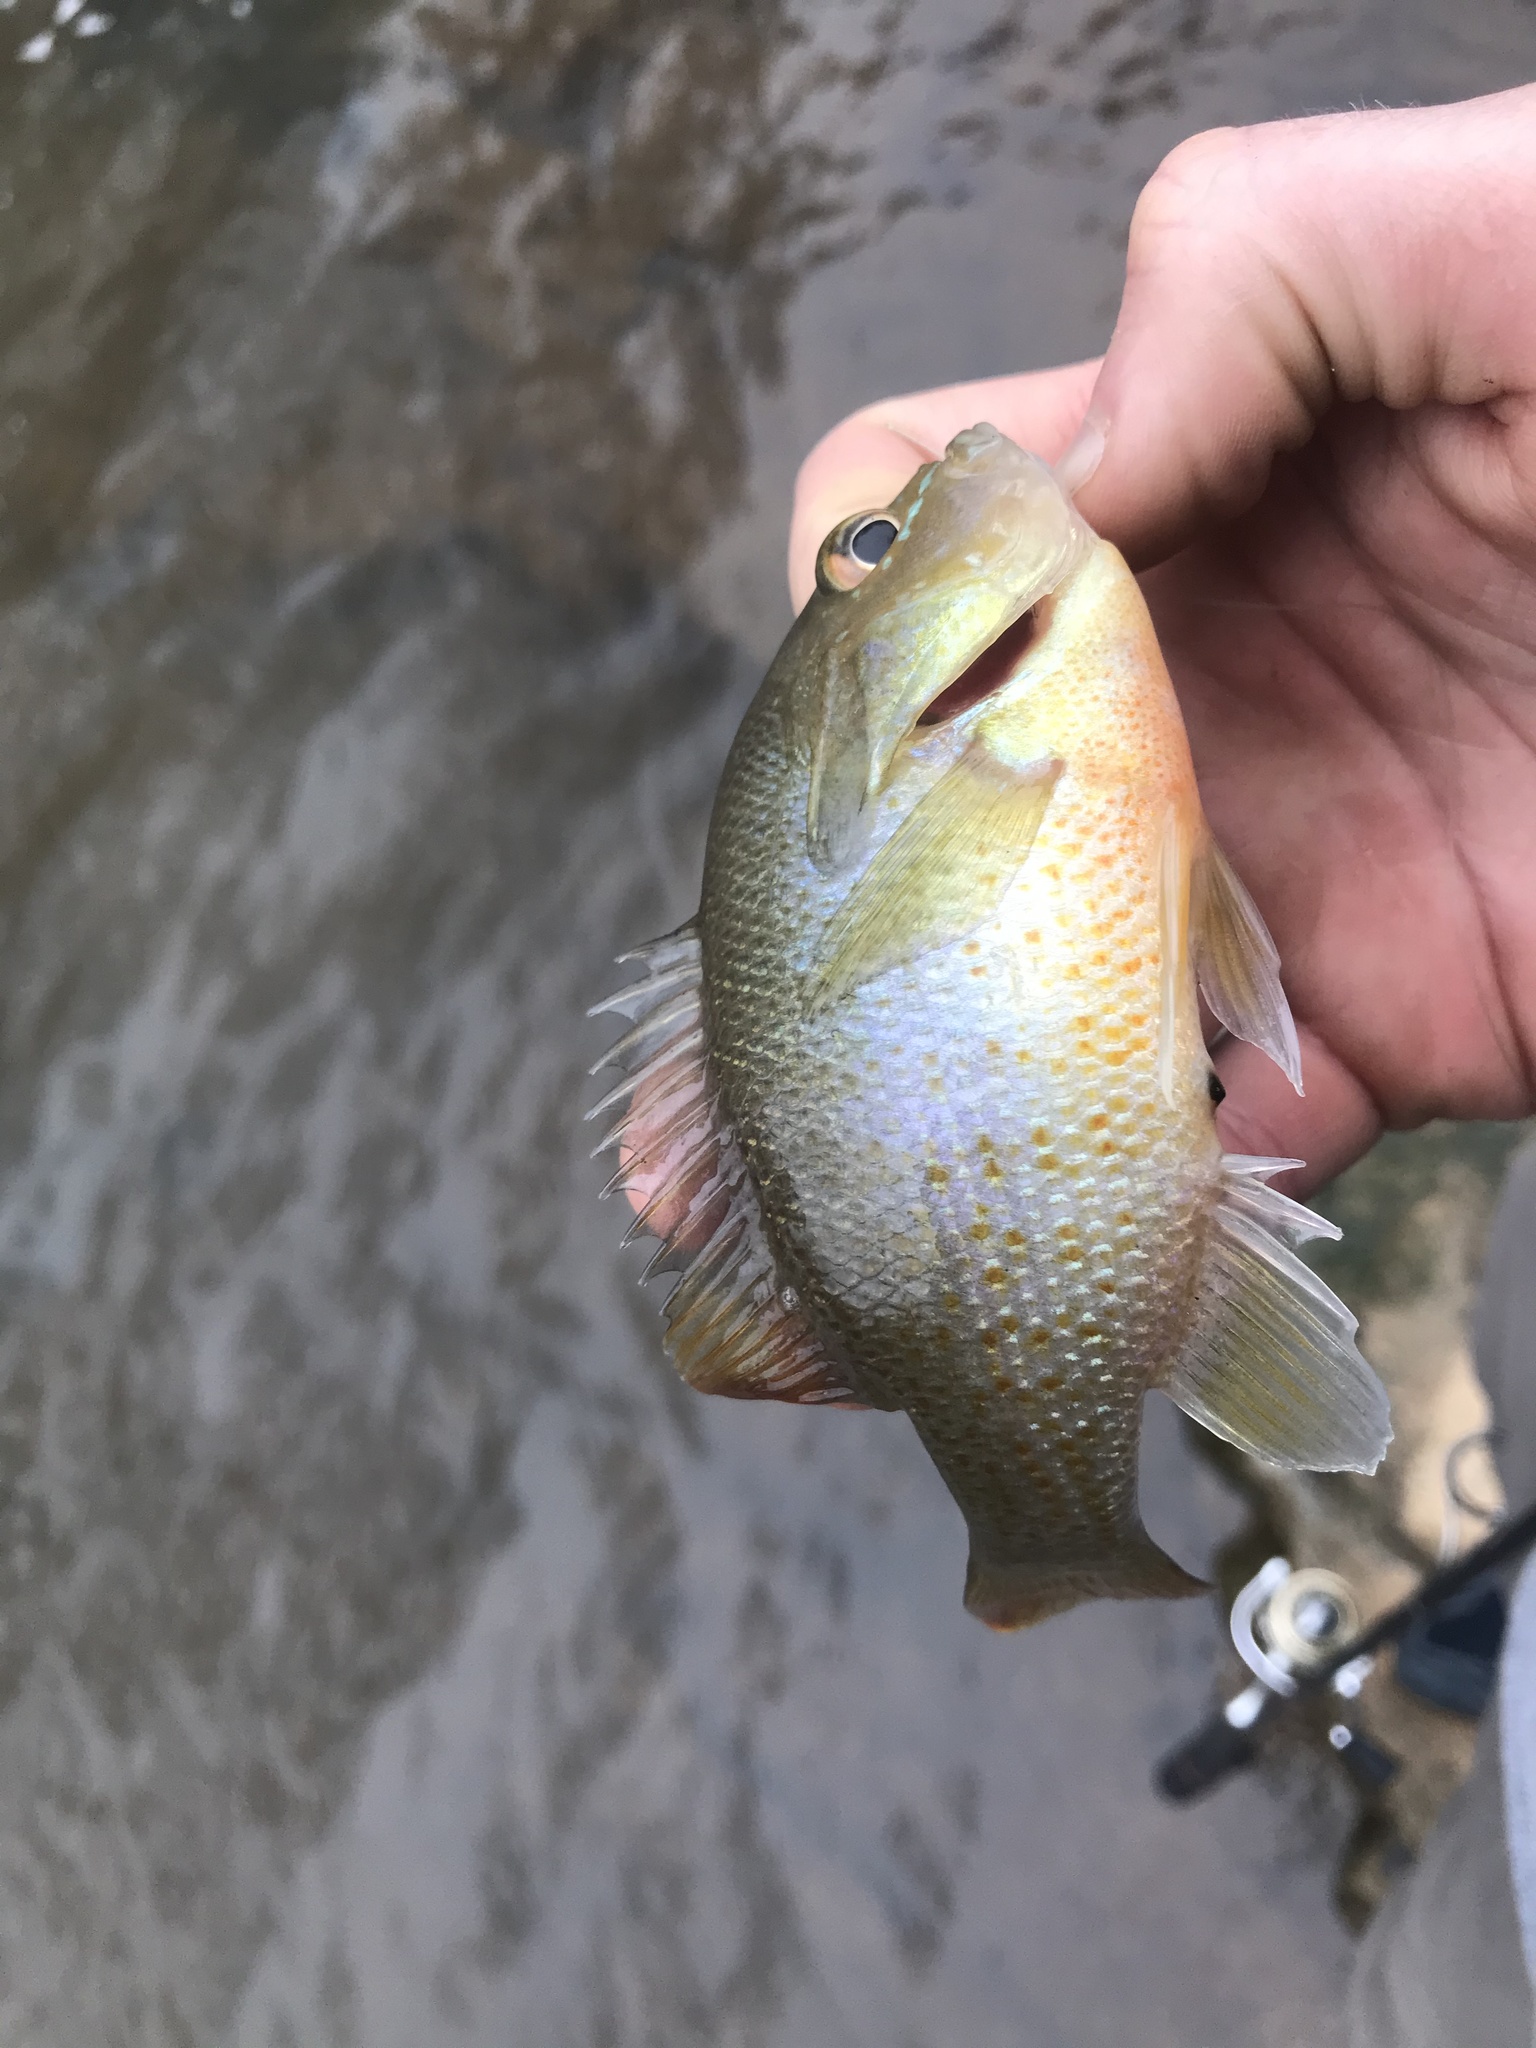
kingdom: Animalia
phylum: Chordata
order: Perciformes
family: Centrarchidae
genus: Lepomis
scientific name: Lepomis auritus
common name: Redbreast sunfish
